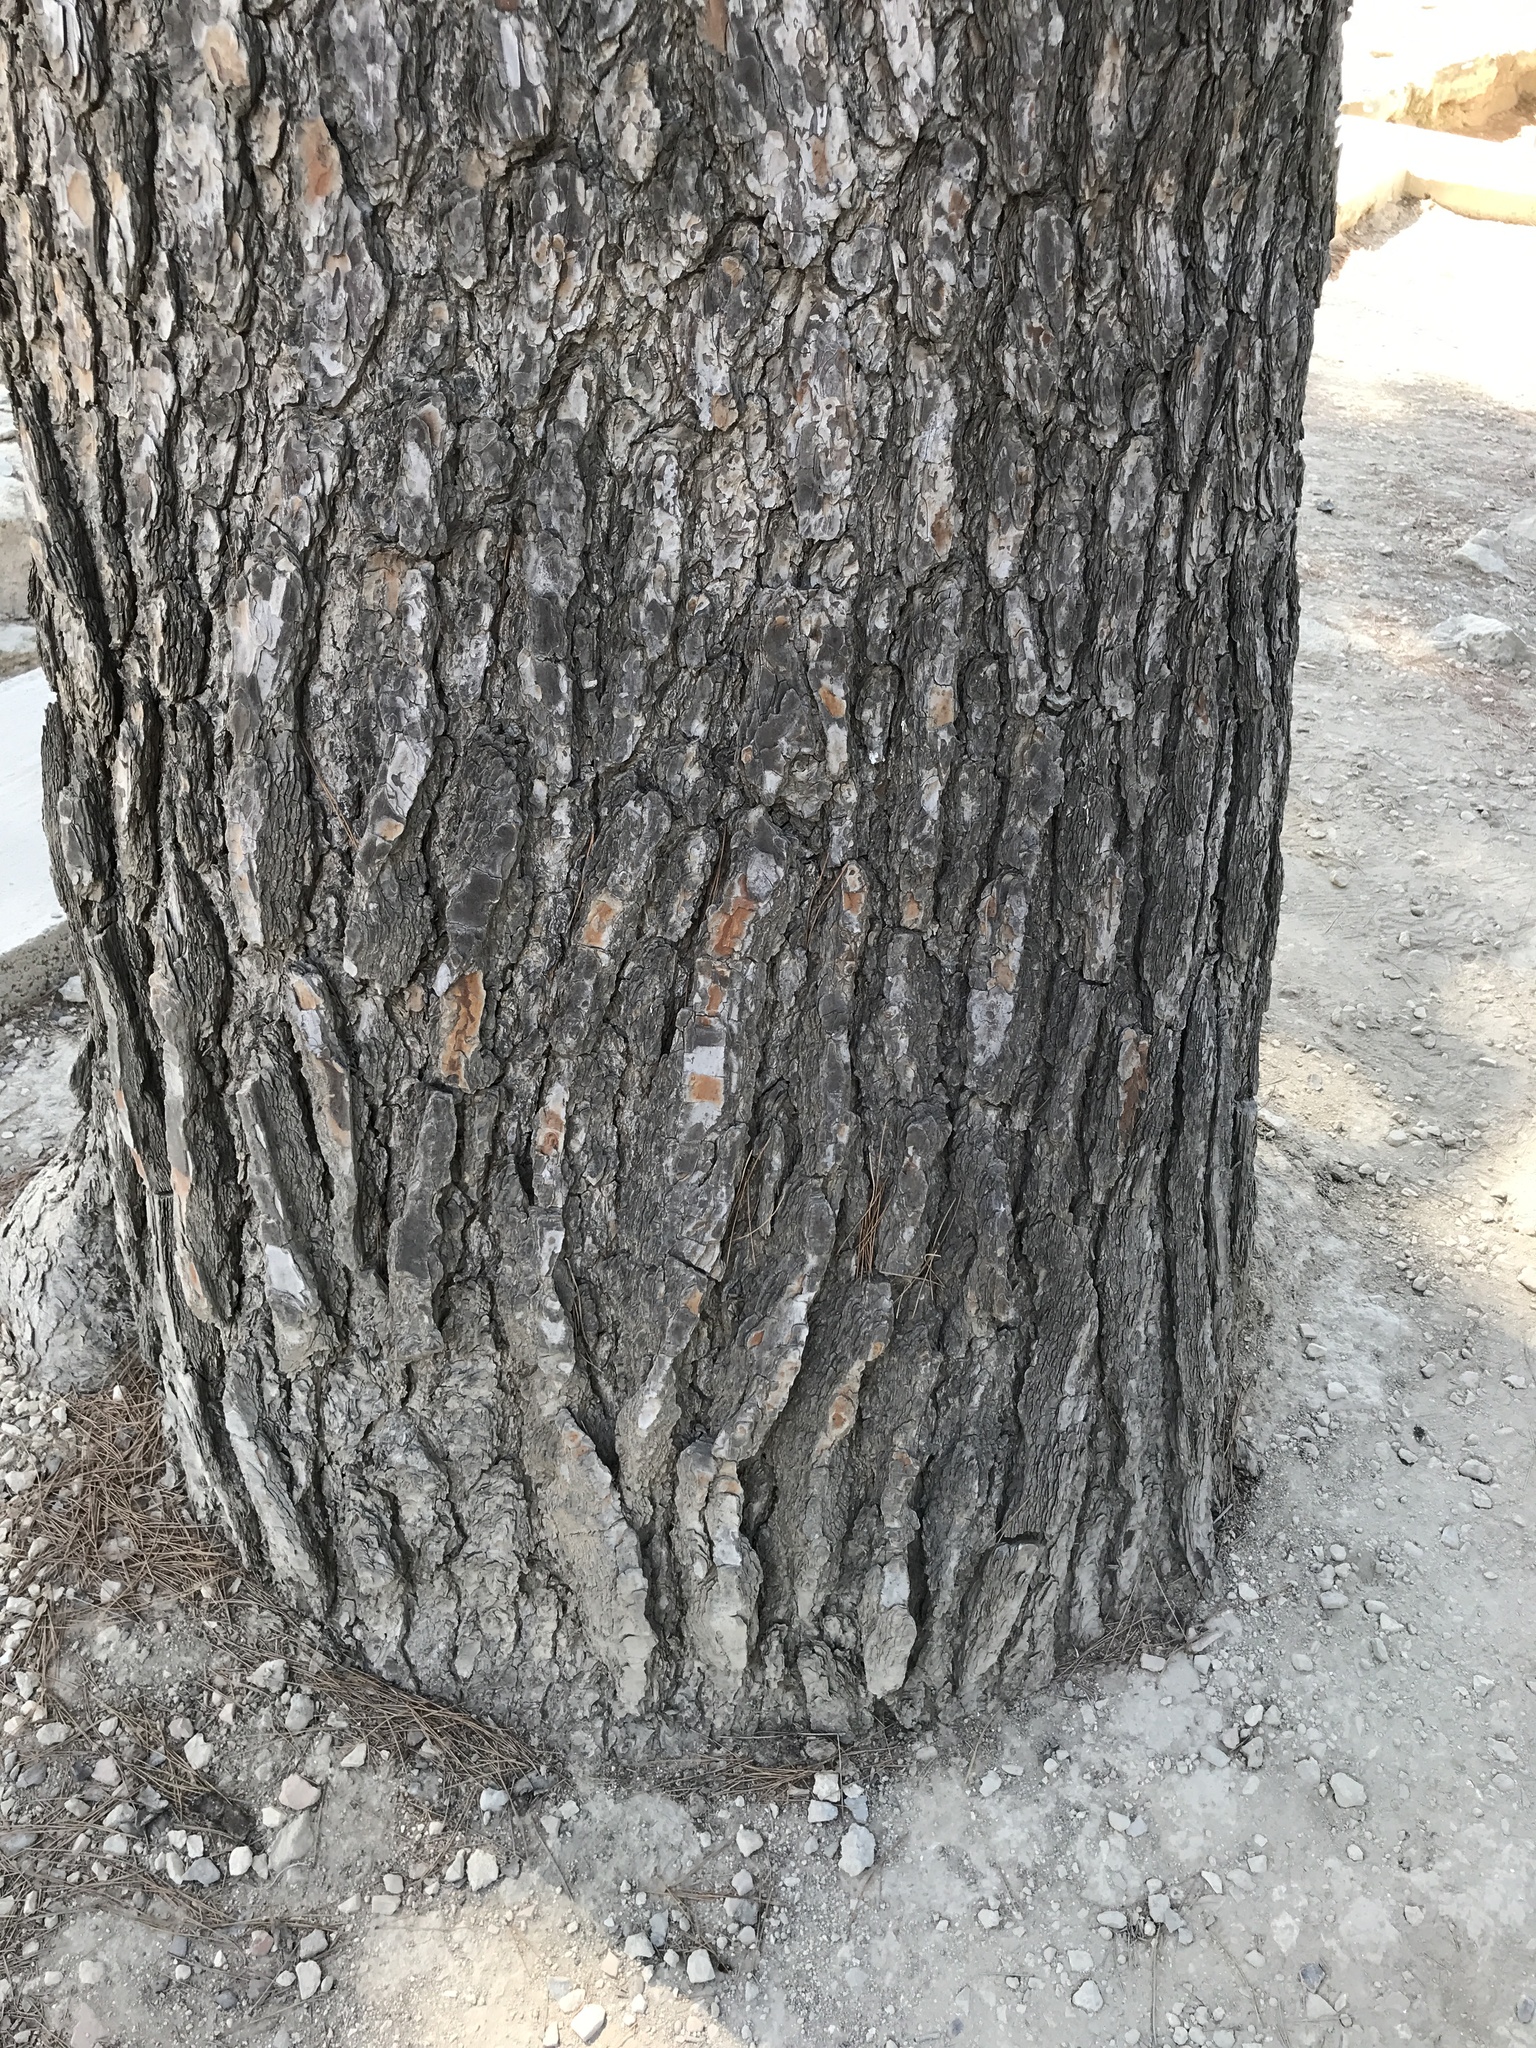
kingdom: Plantae
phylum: Tracheophyta
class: Pinopsida
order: Pinales
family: Pinaceae
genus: Pinus
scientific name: Pinus halepensis
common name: Aleppo pine
